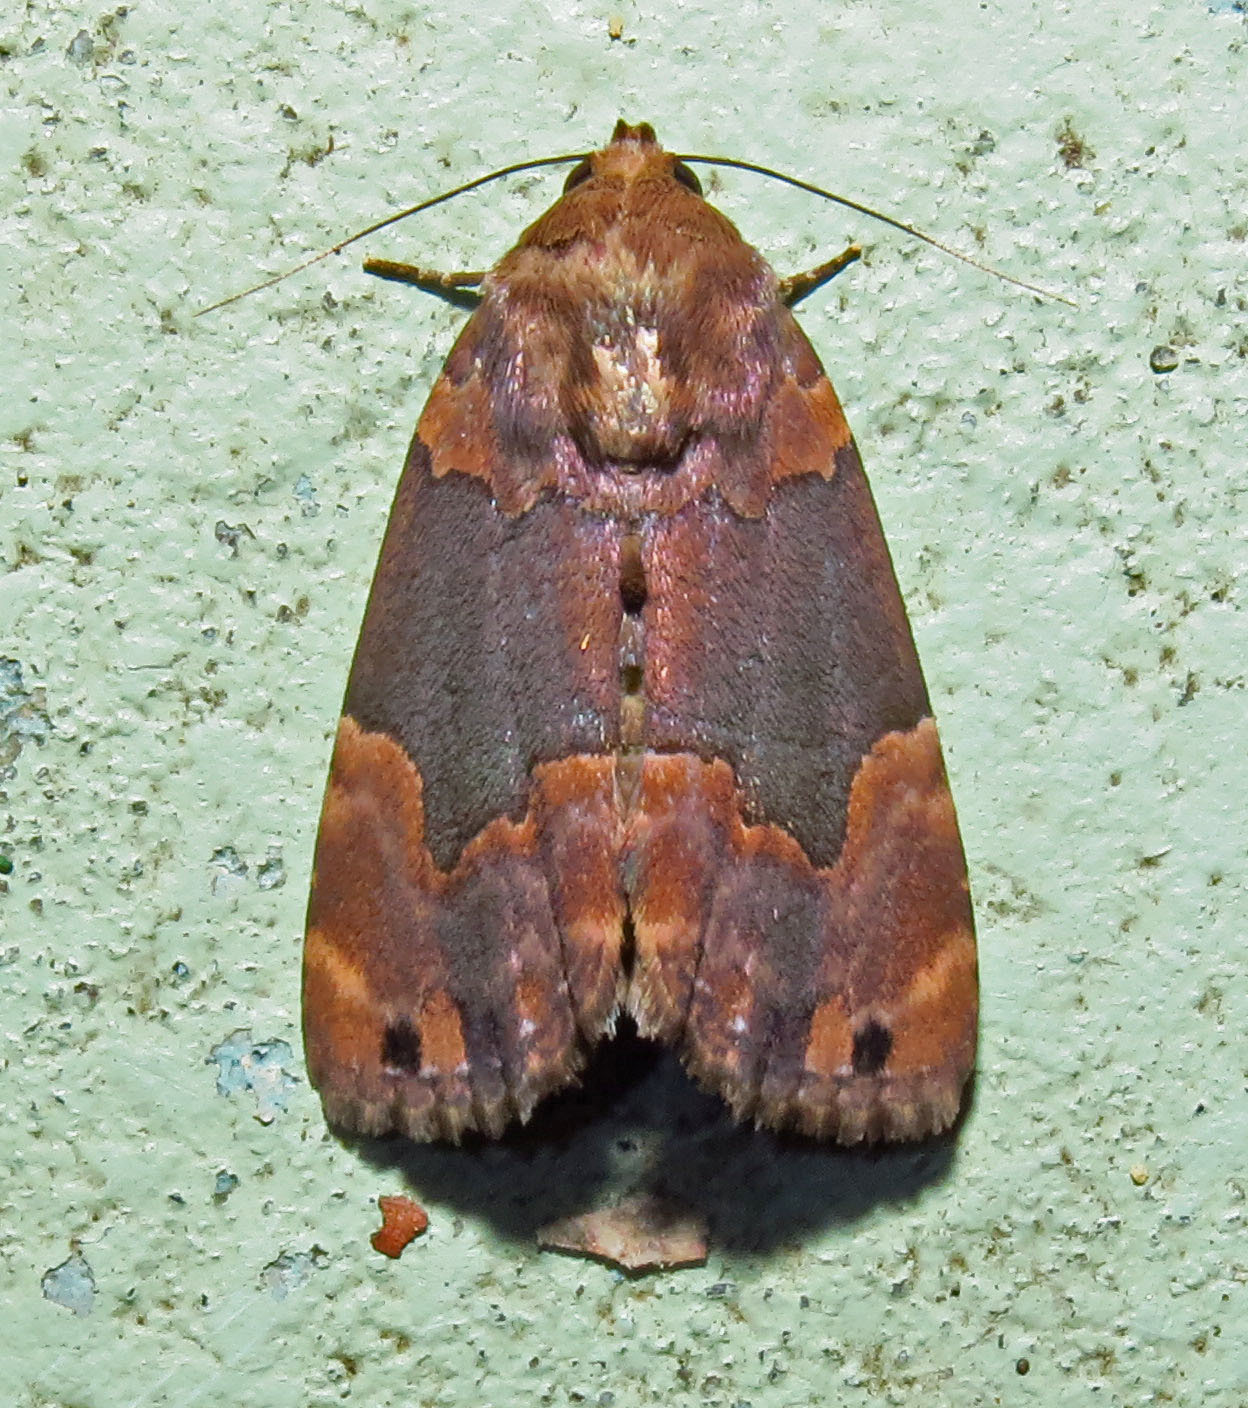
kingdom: Animalia
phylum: Arthropoda
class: Insecta
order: Lepidoptera
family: Erebidae
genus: Dinumma
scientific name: Dinumma deponens
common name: Purplish moth
